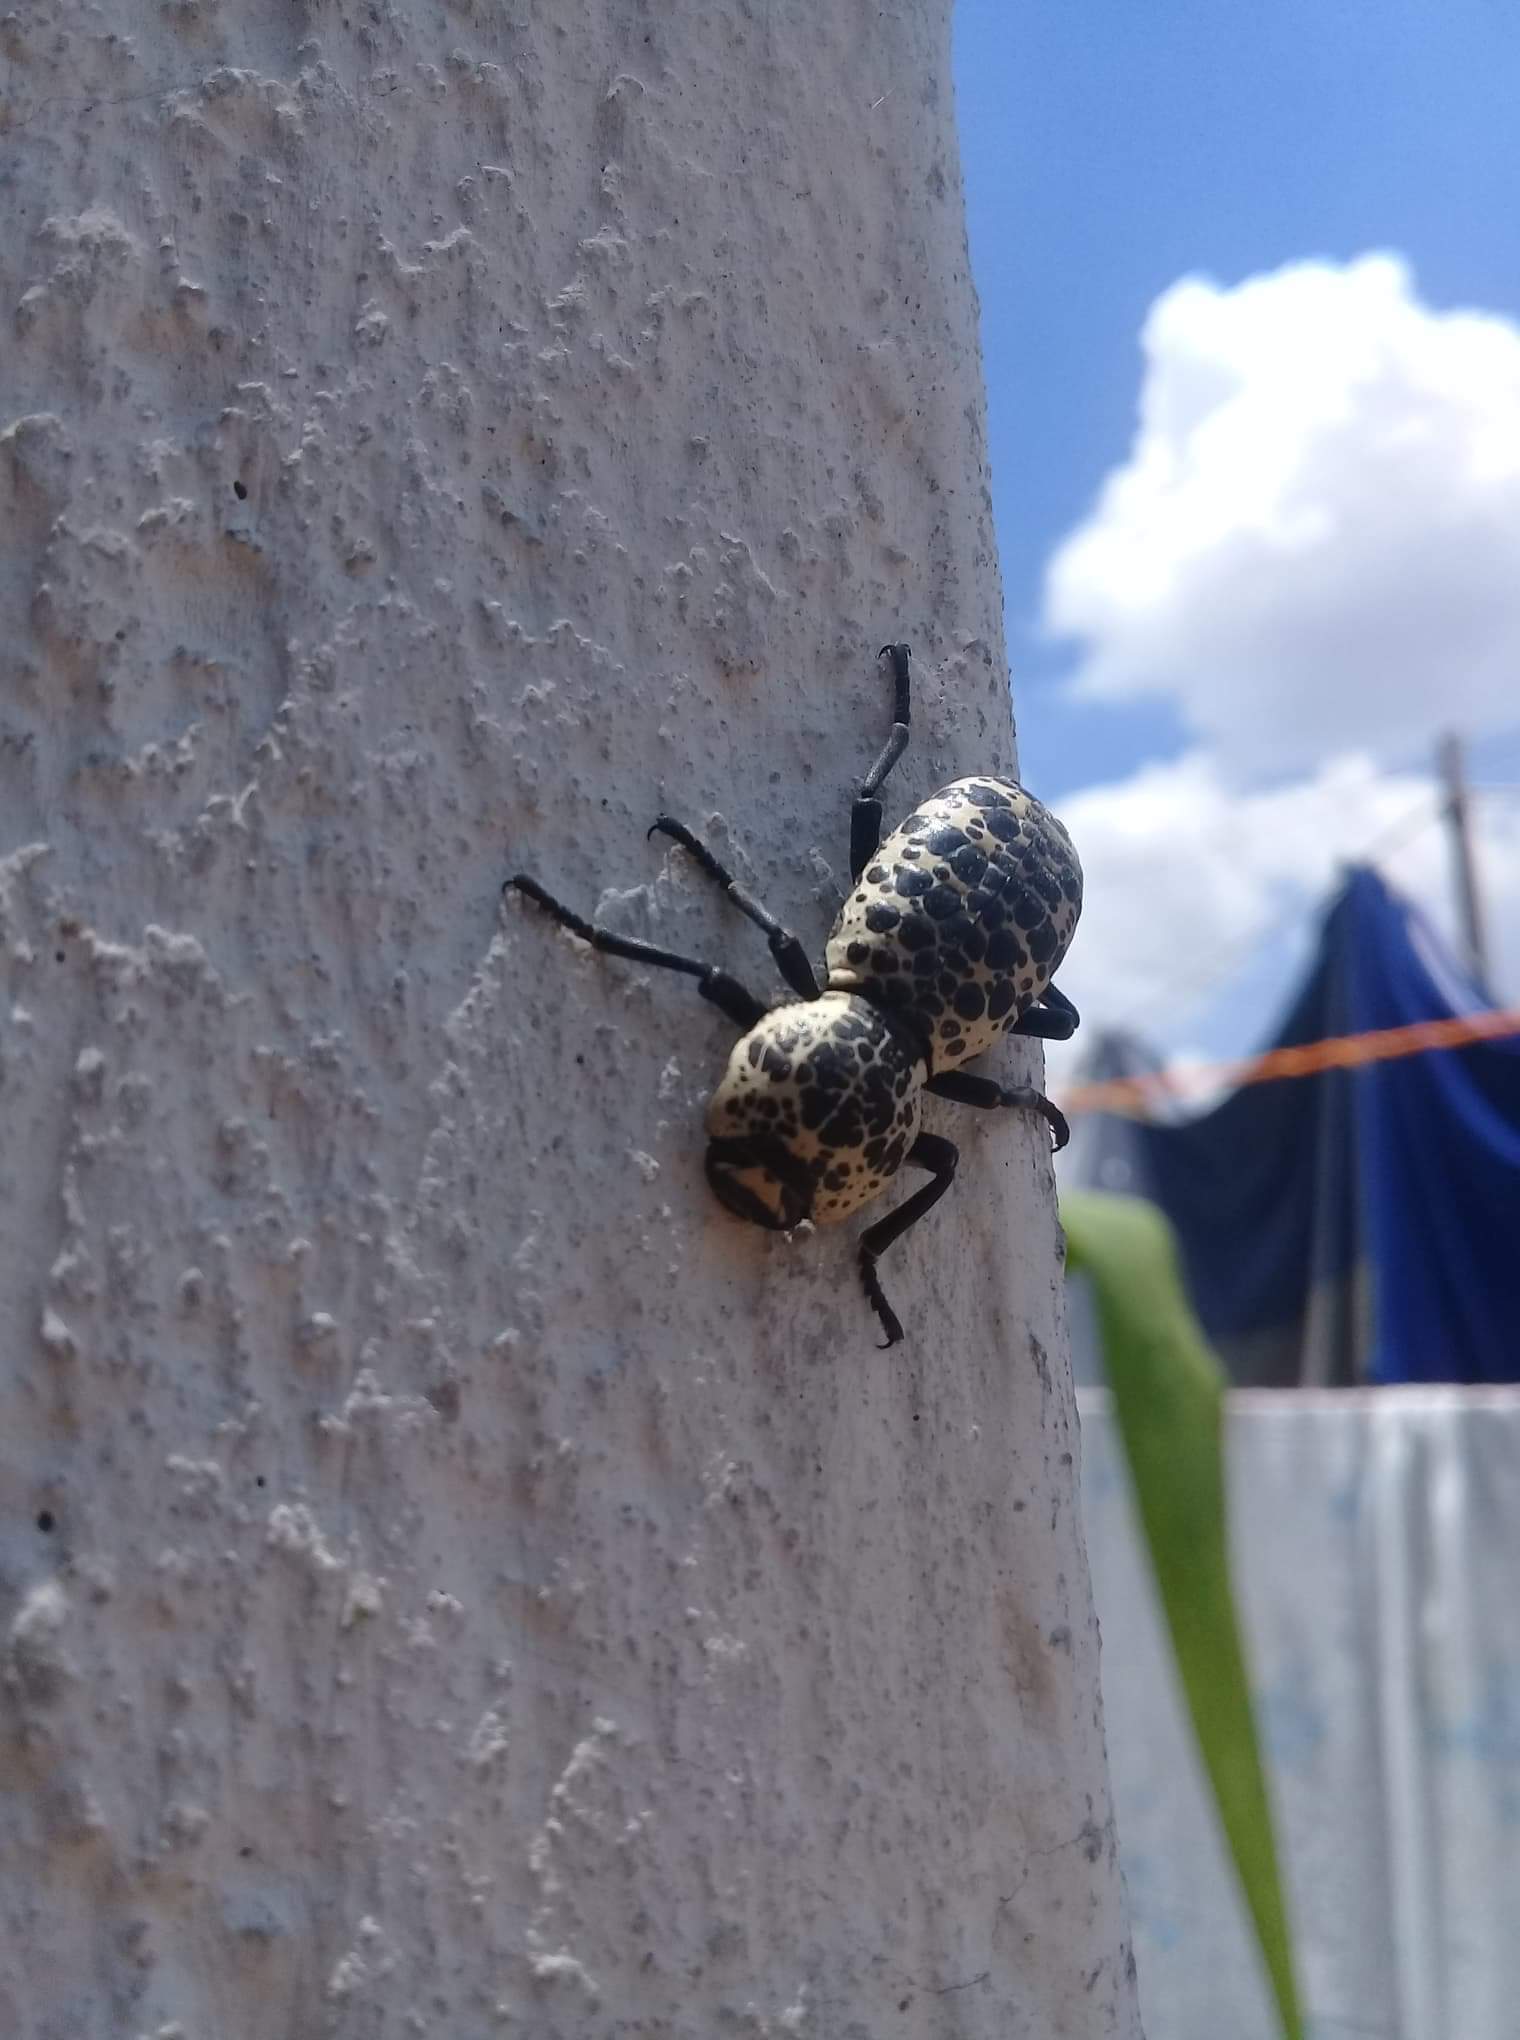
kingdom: Animalia
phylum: Arthropoda
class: Insecta
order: Coleoptera
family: Zopheridae
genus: Zopherus
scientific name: Zopherus nodulosus
